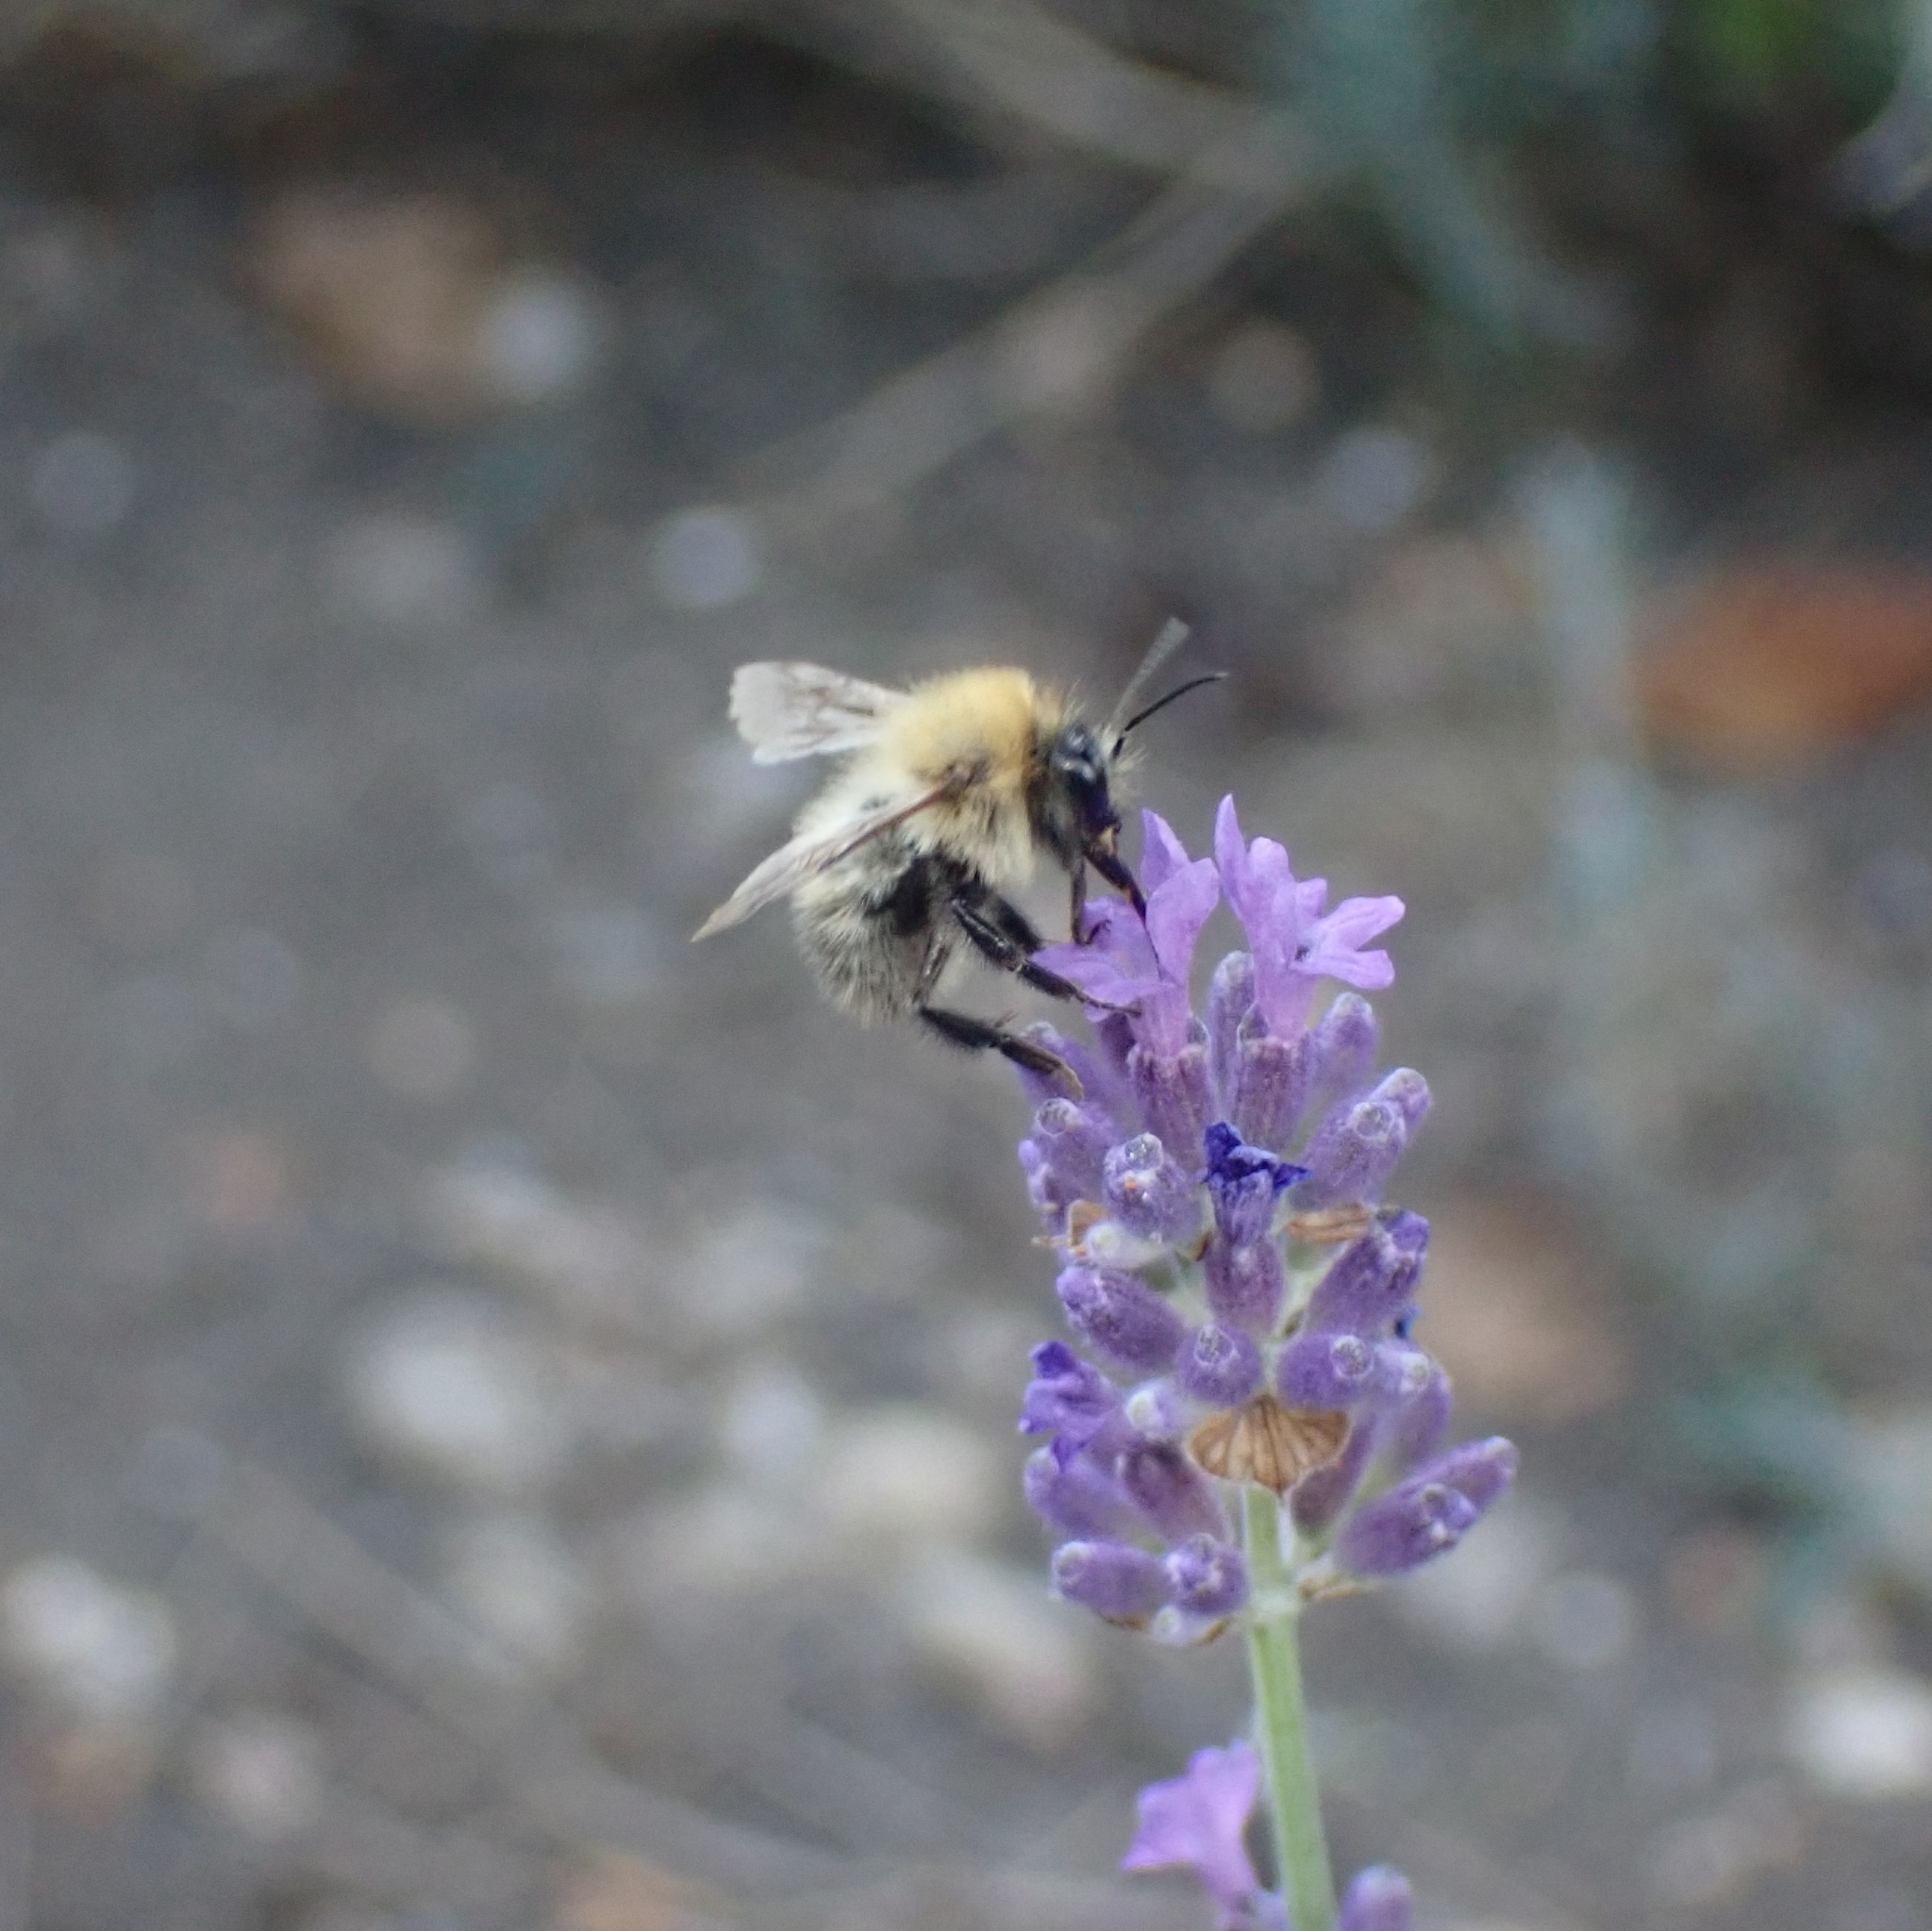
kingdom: Animalia
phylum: Arthropoda
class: Insecta
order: Hymenoptera
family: Apidae
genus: Bombus
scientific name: Bombus pascuorum
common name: Common carder bee
